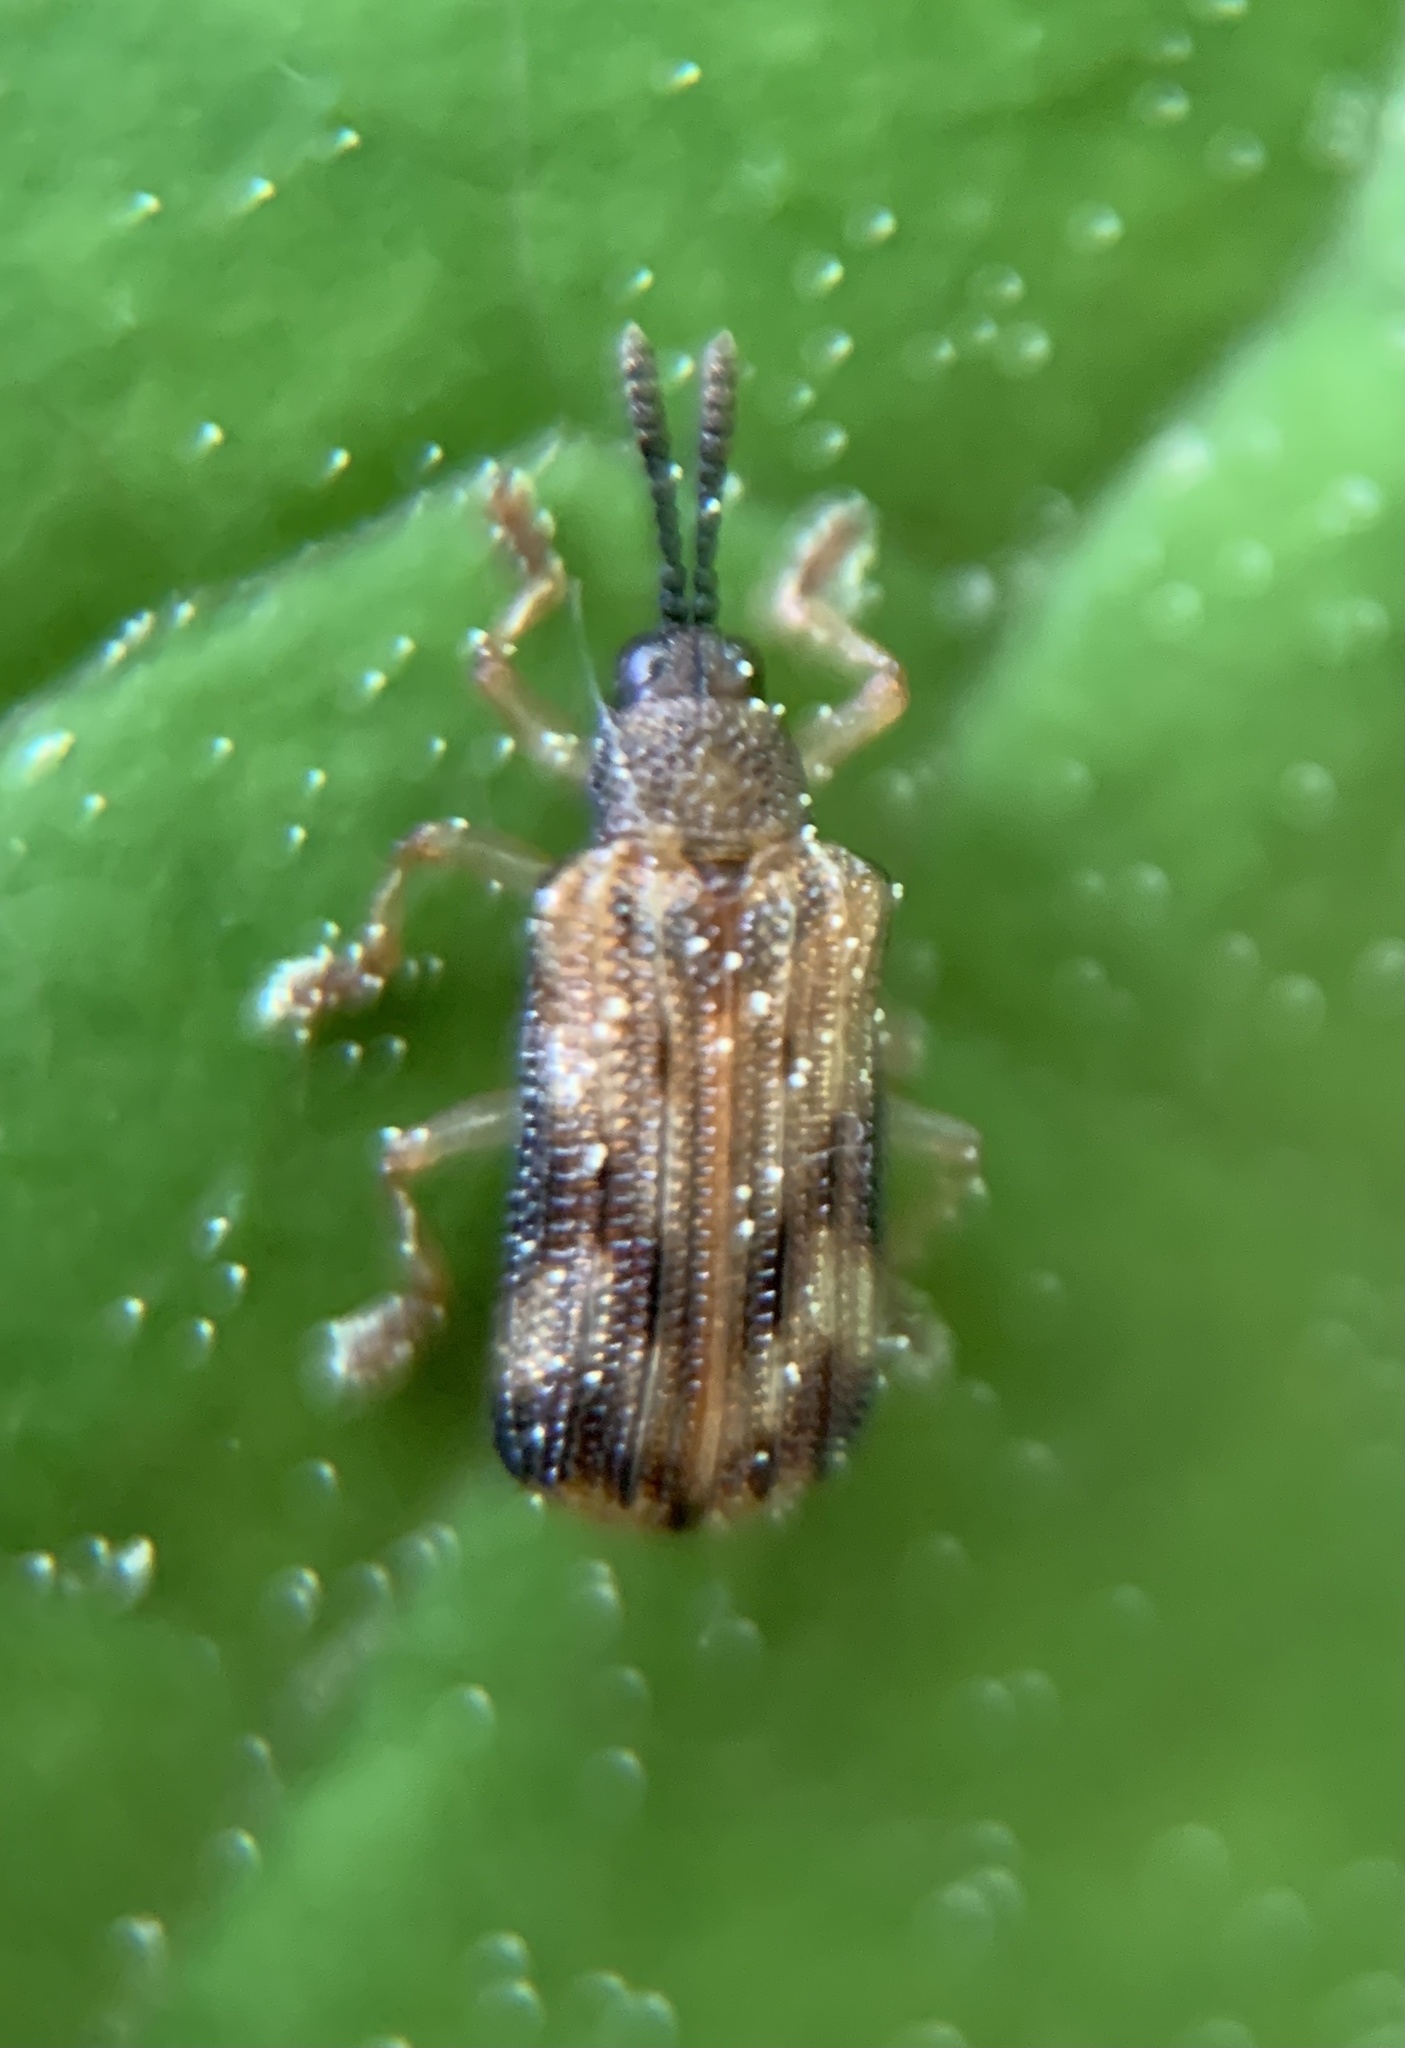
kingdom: Animalia
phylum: Arthropoda
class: Insecta
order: Coleoptera
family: Chrysomelidae
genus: Sumitrosis
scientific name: Sumitrosis inaequalis
